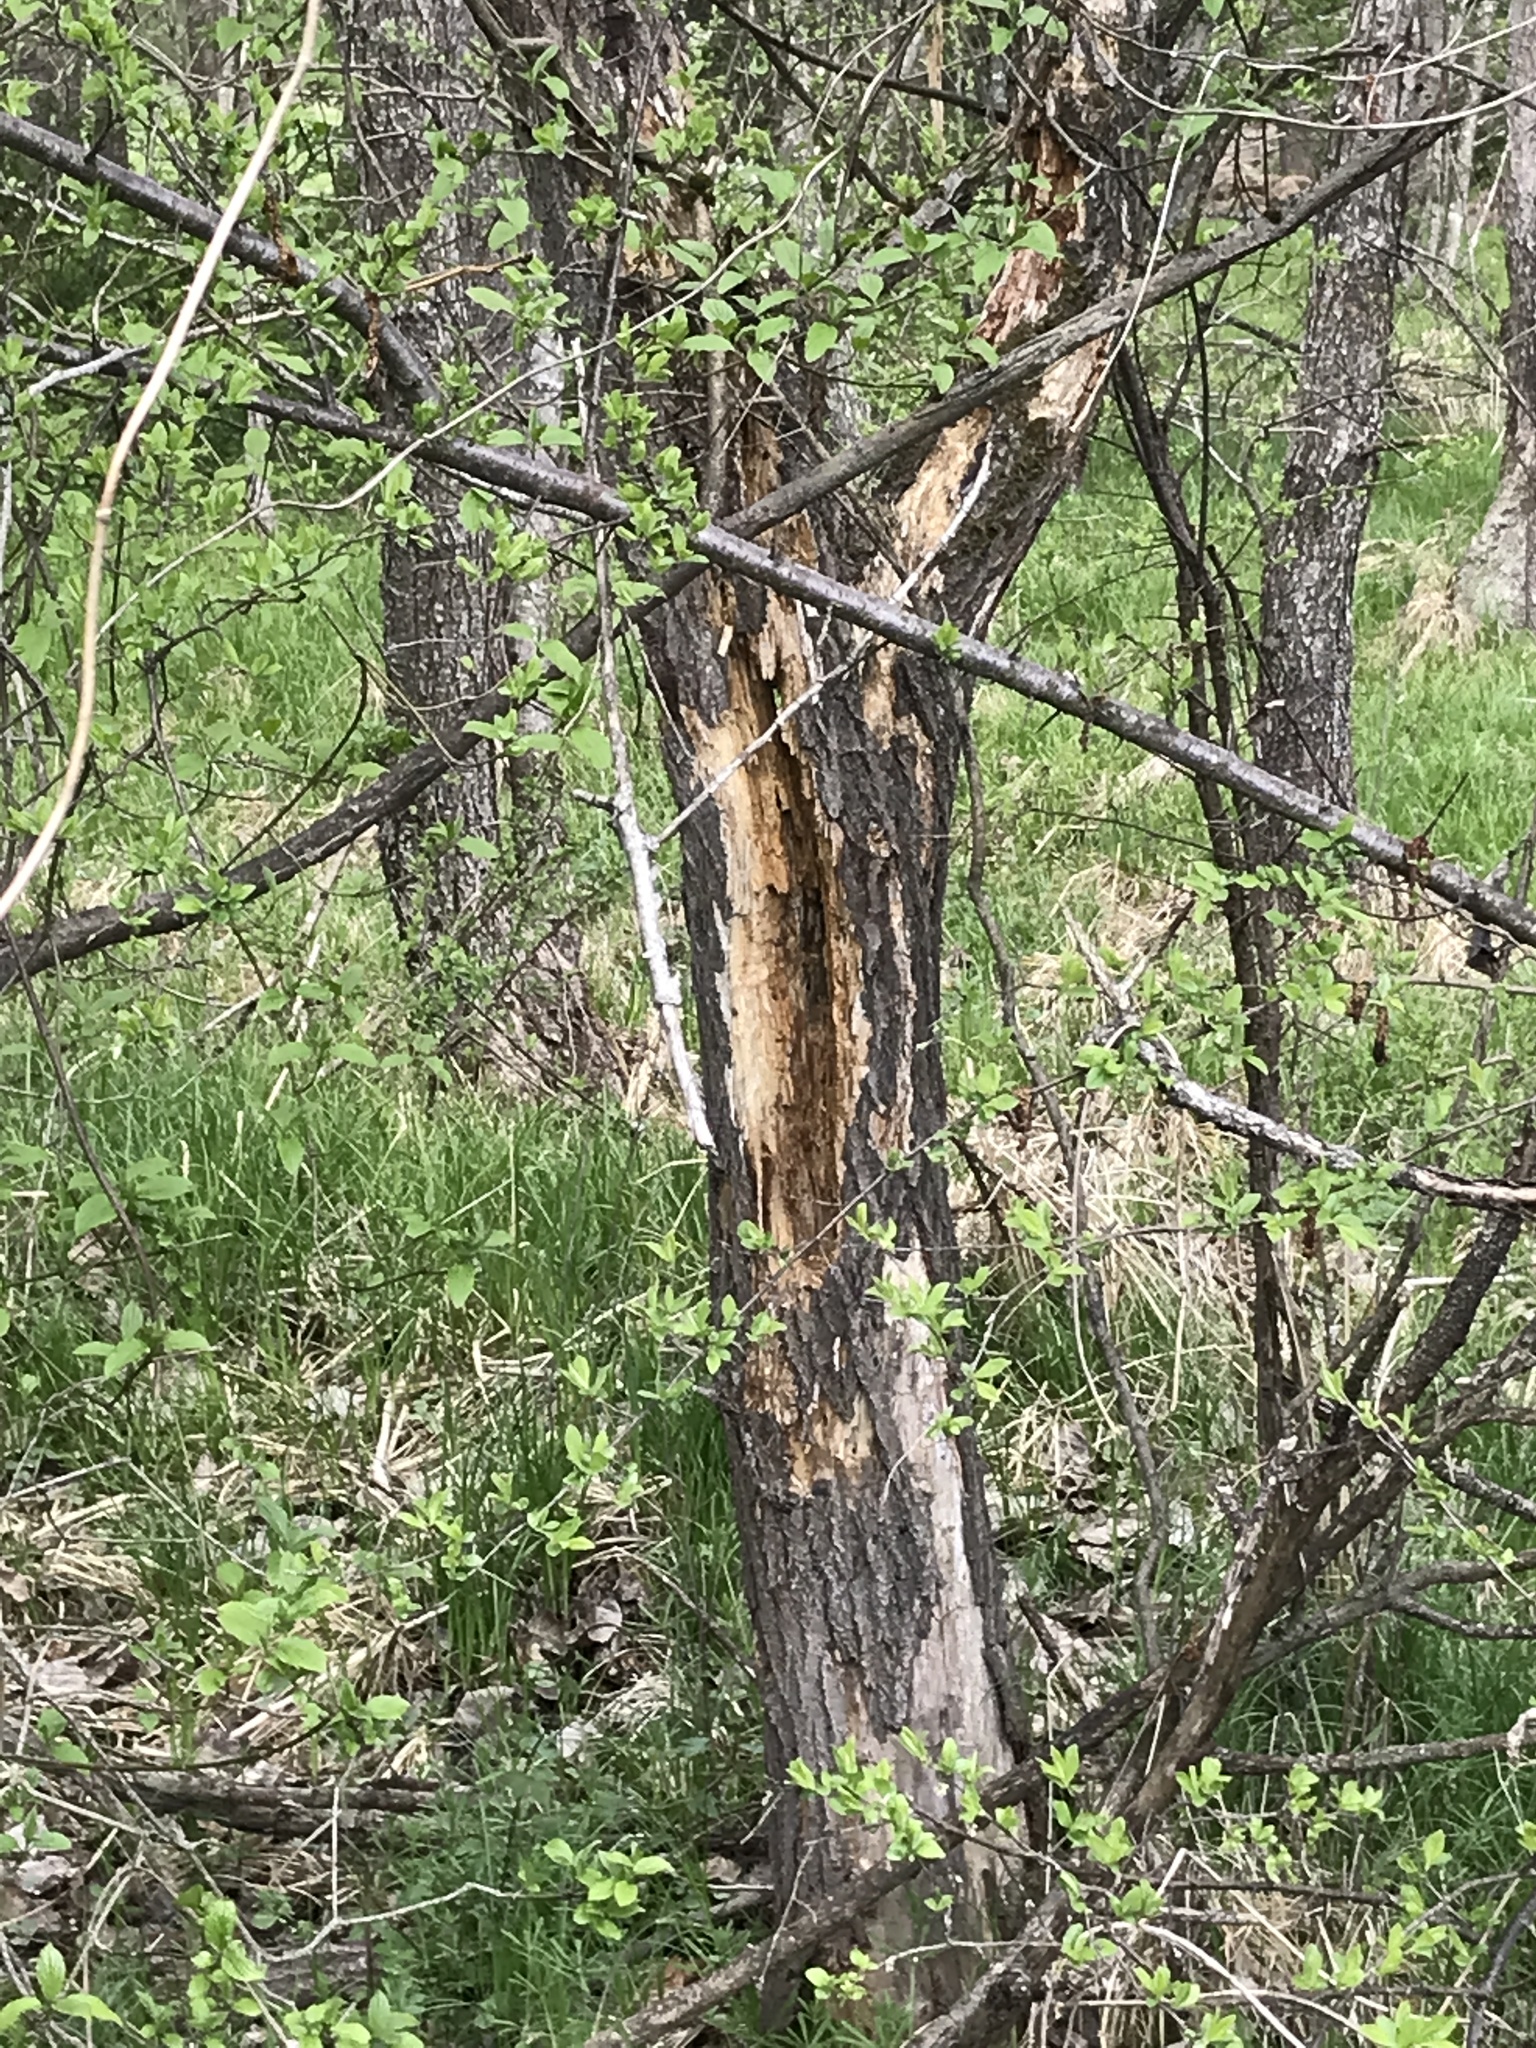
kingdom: Animalia
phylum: Chordata
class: Aves
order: Piciformes
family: Picidae
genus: Dryocopus
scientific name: Dryocopus martius
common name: Black woodpecker
